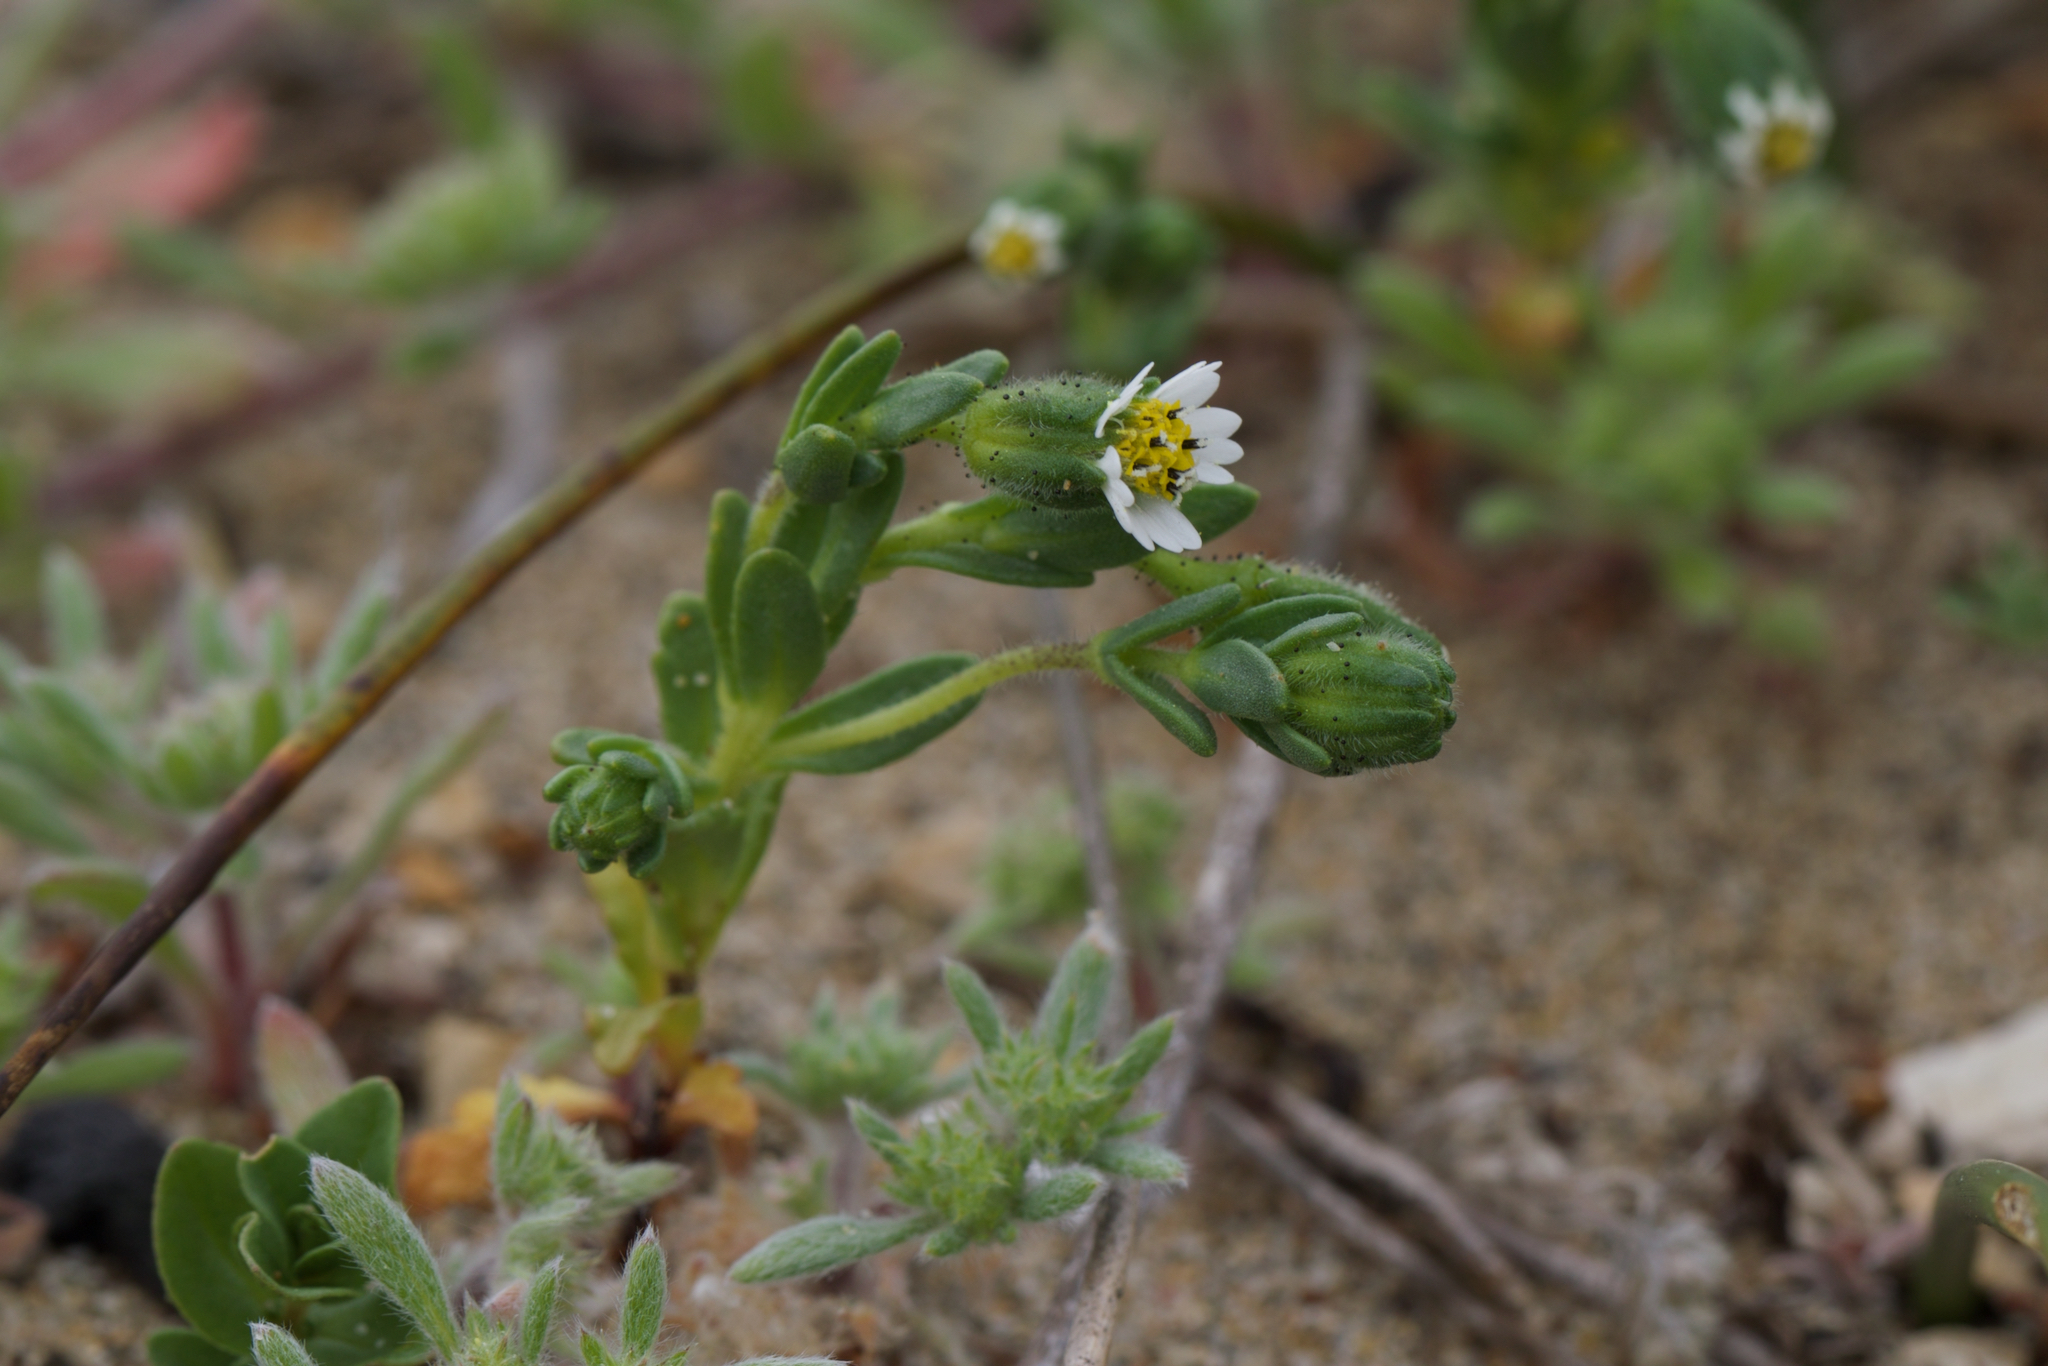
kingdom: Plantae
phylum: Tracheophyta
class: Magnoliopsida
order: Asterales
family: Asteraceae
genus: Layia
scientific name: Layia carnosa
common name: Beach layia
